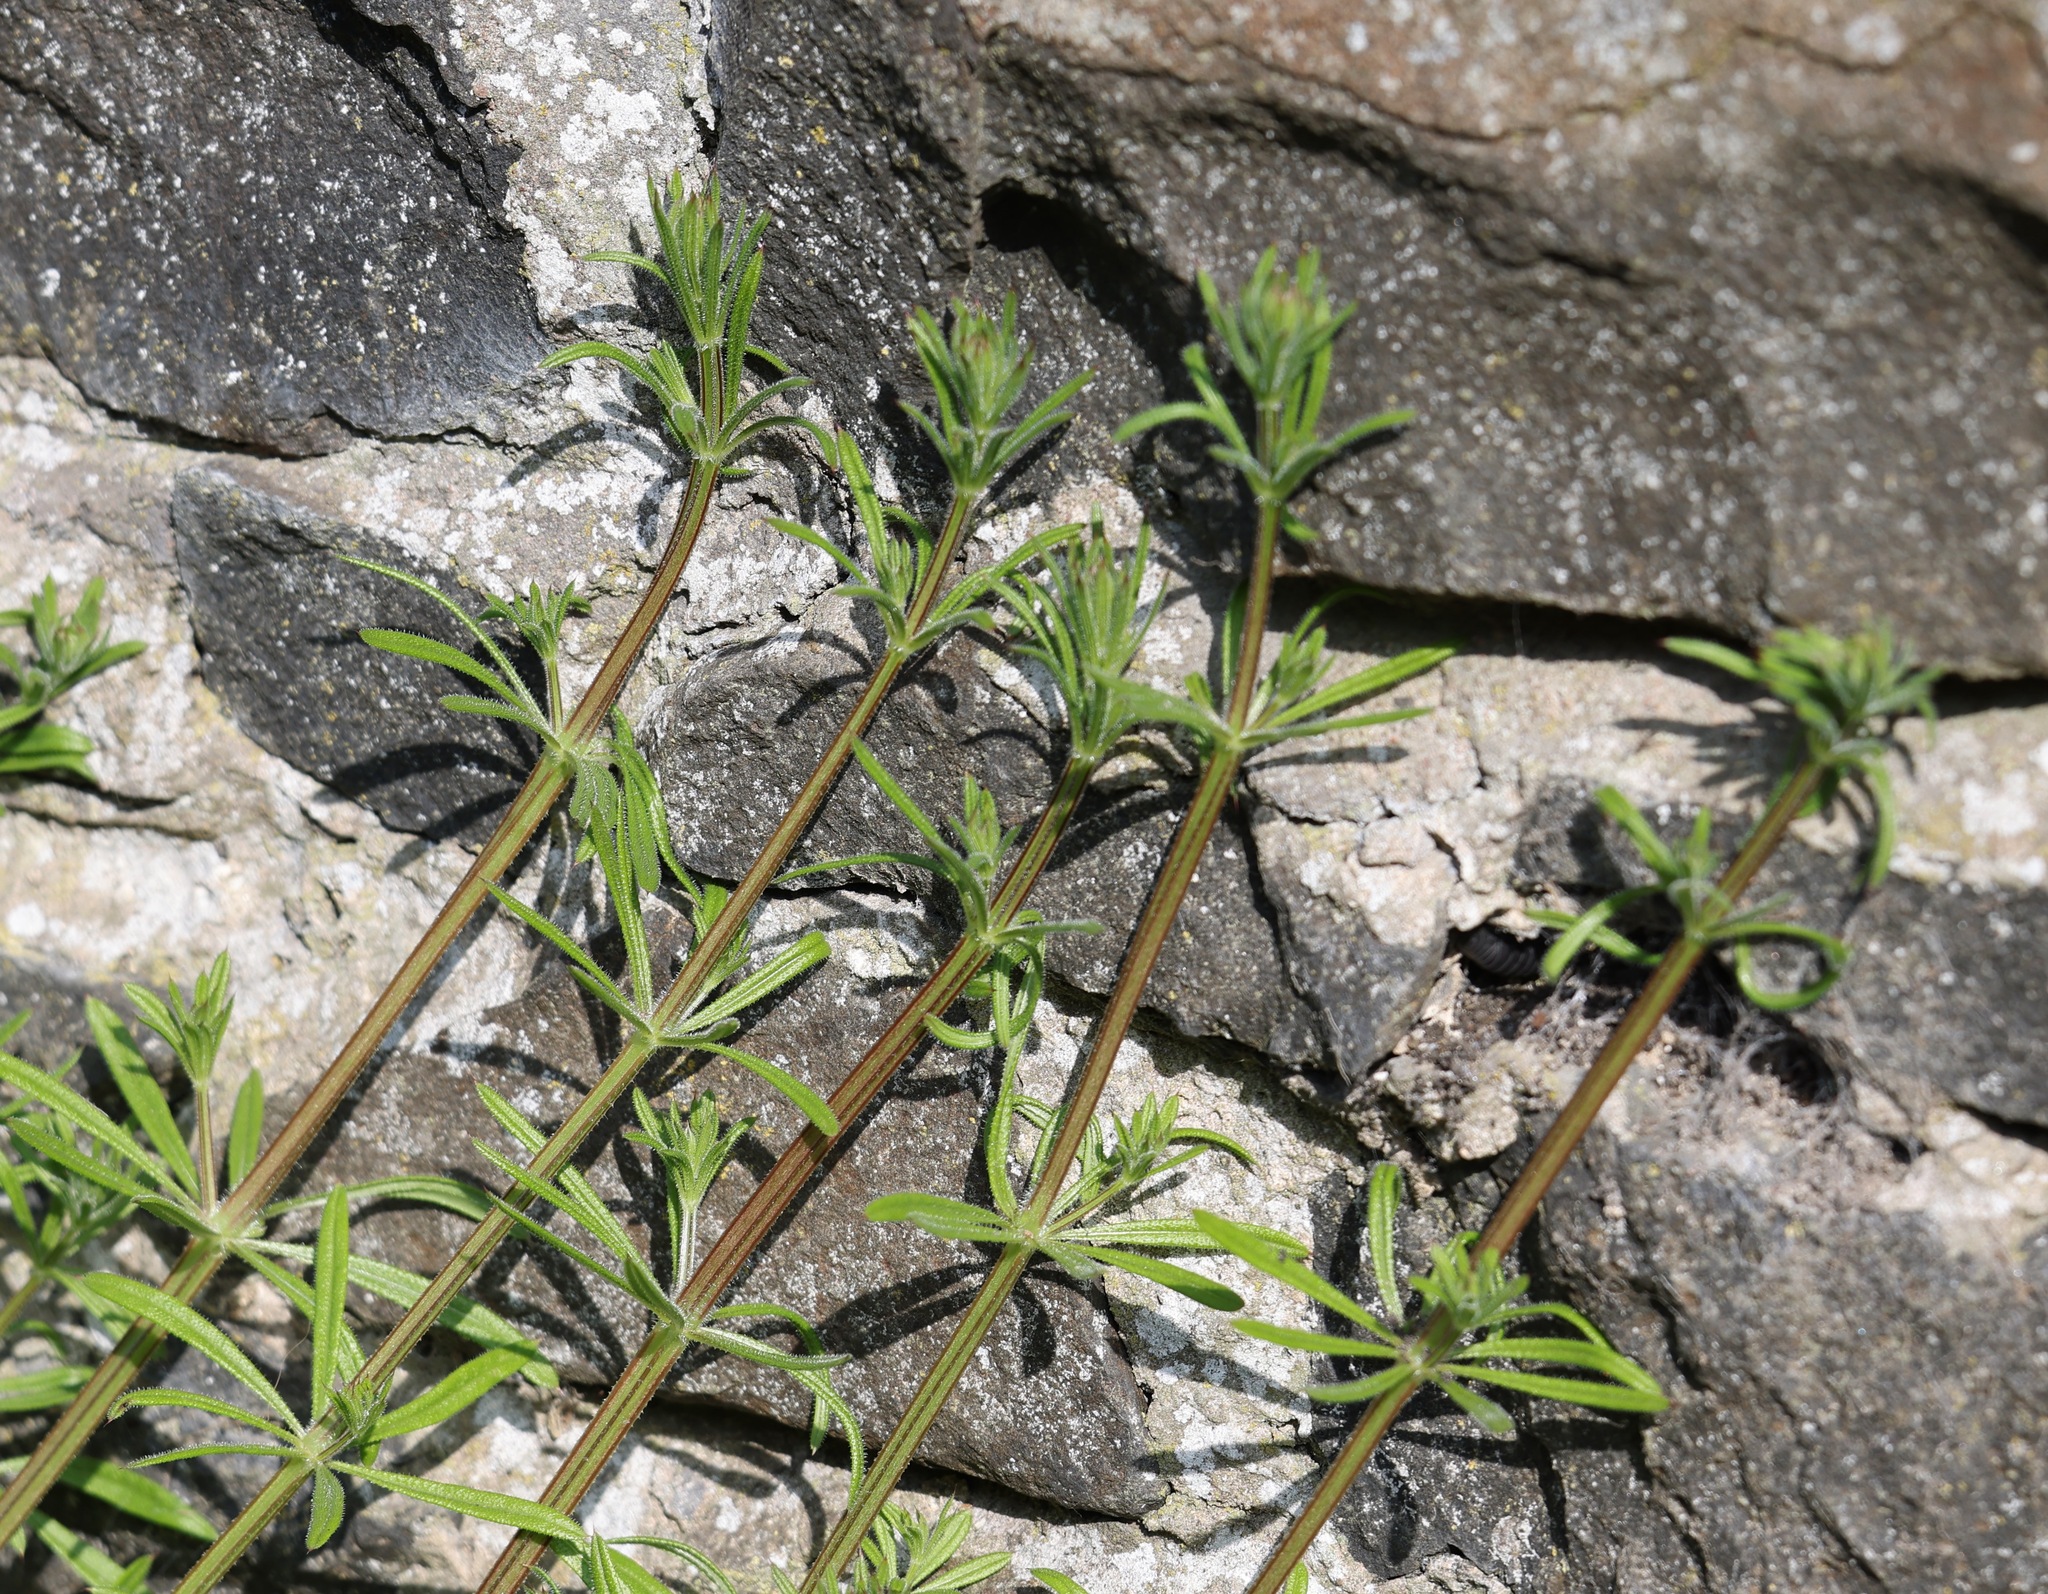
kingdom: Plantae
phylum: Tracheophyta
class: Magnoliopsida
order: Gentianales
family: Rubiaceae
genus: Galium
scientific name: Galium aparine
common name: Cleavers
